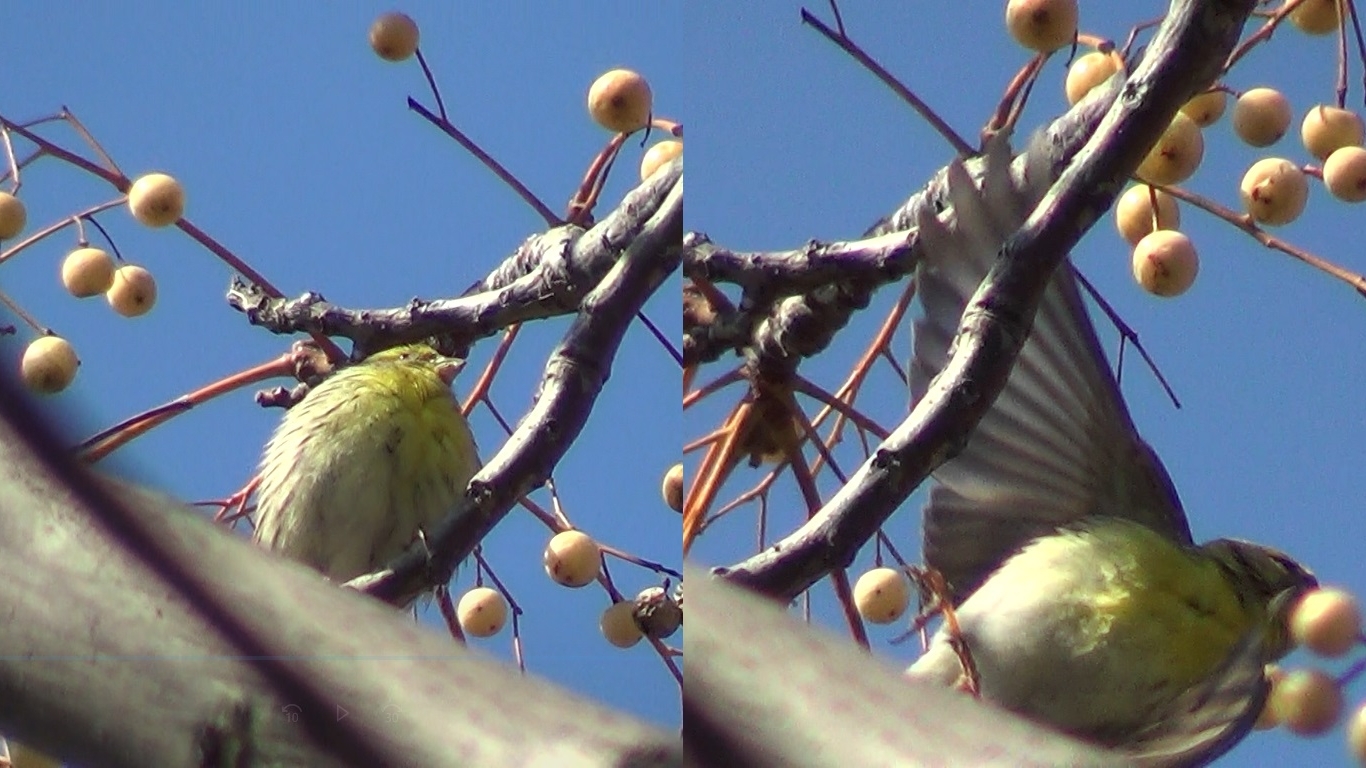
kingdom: Animalia
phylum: Chordata
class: Aves
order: Passeriformes
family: Fringillidae
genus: Serinus
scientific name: Serinus serinus
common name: European serin
